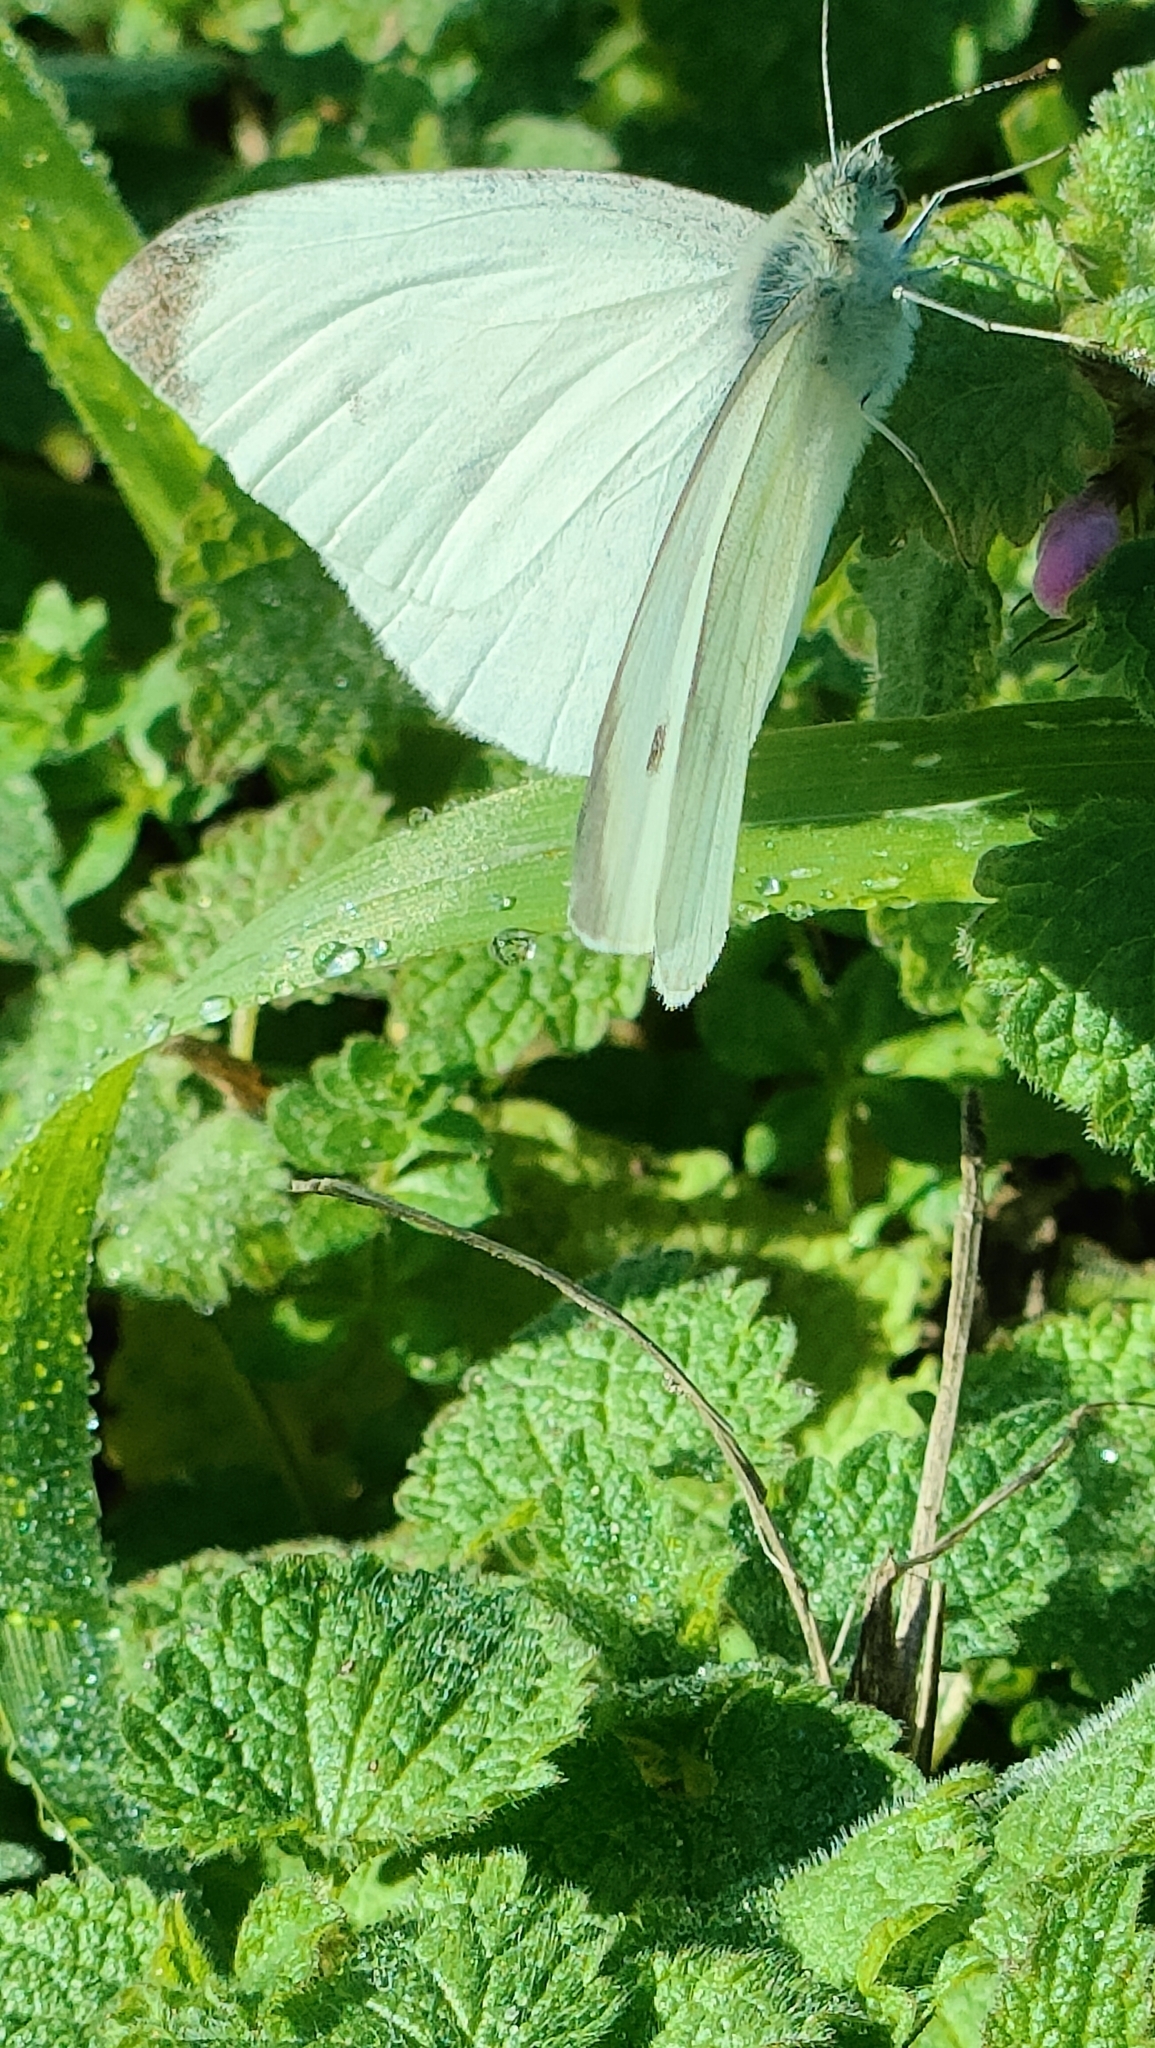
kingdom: Animalia
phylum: Arthropoda
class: Insecta
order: Lepidoptera
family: Pieridae
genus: Pieris
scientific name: Pieris rapae
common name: Small white
